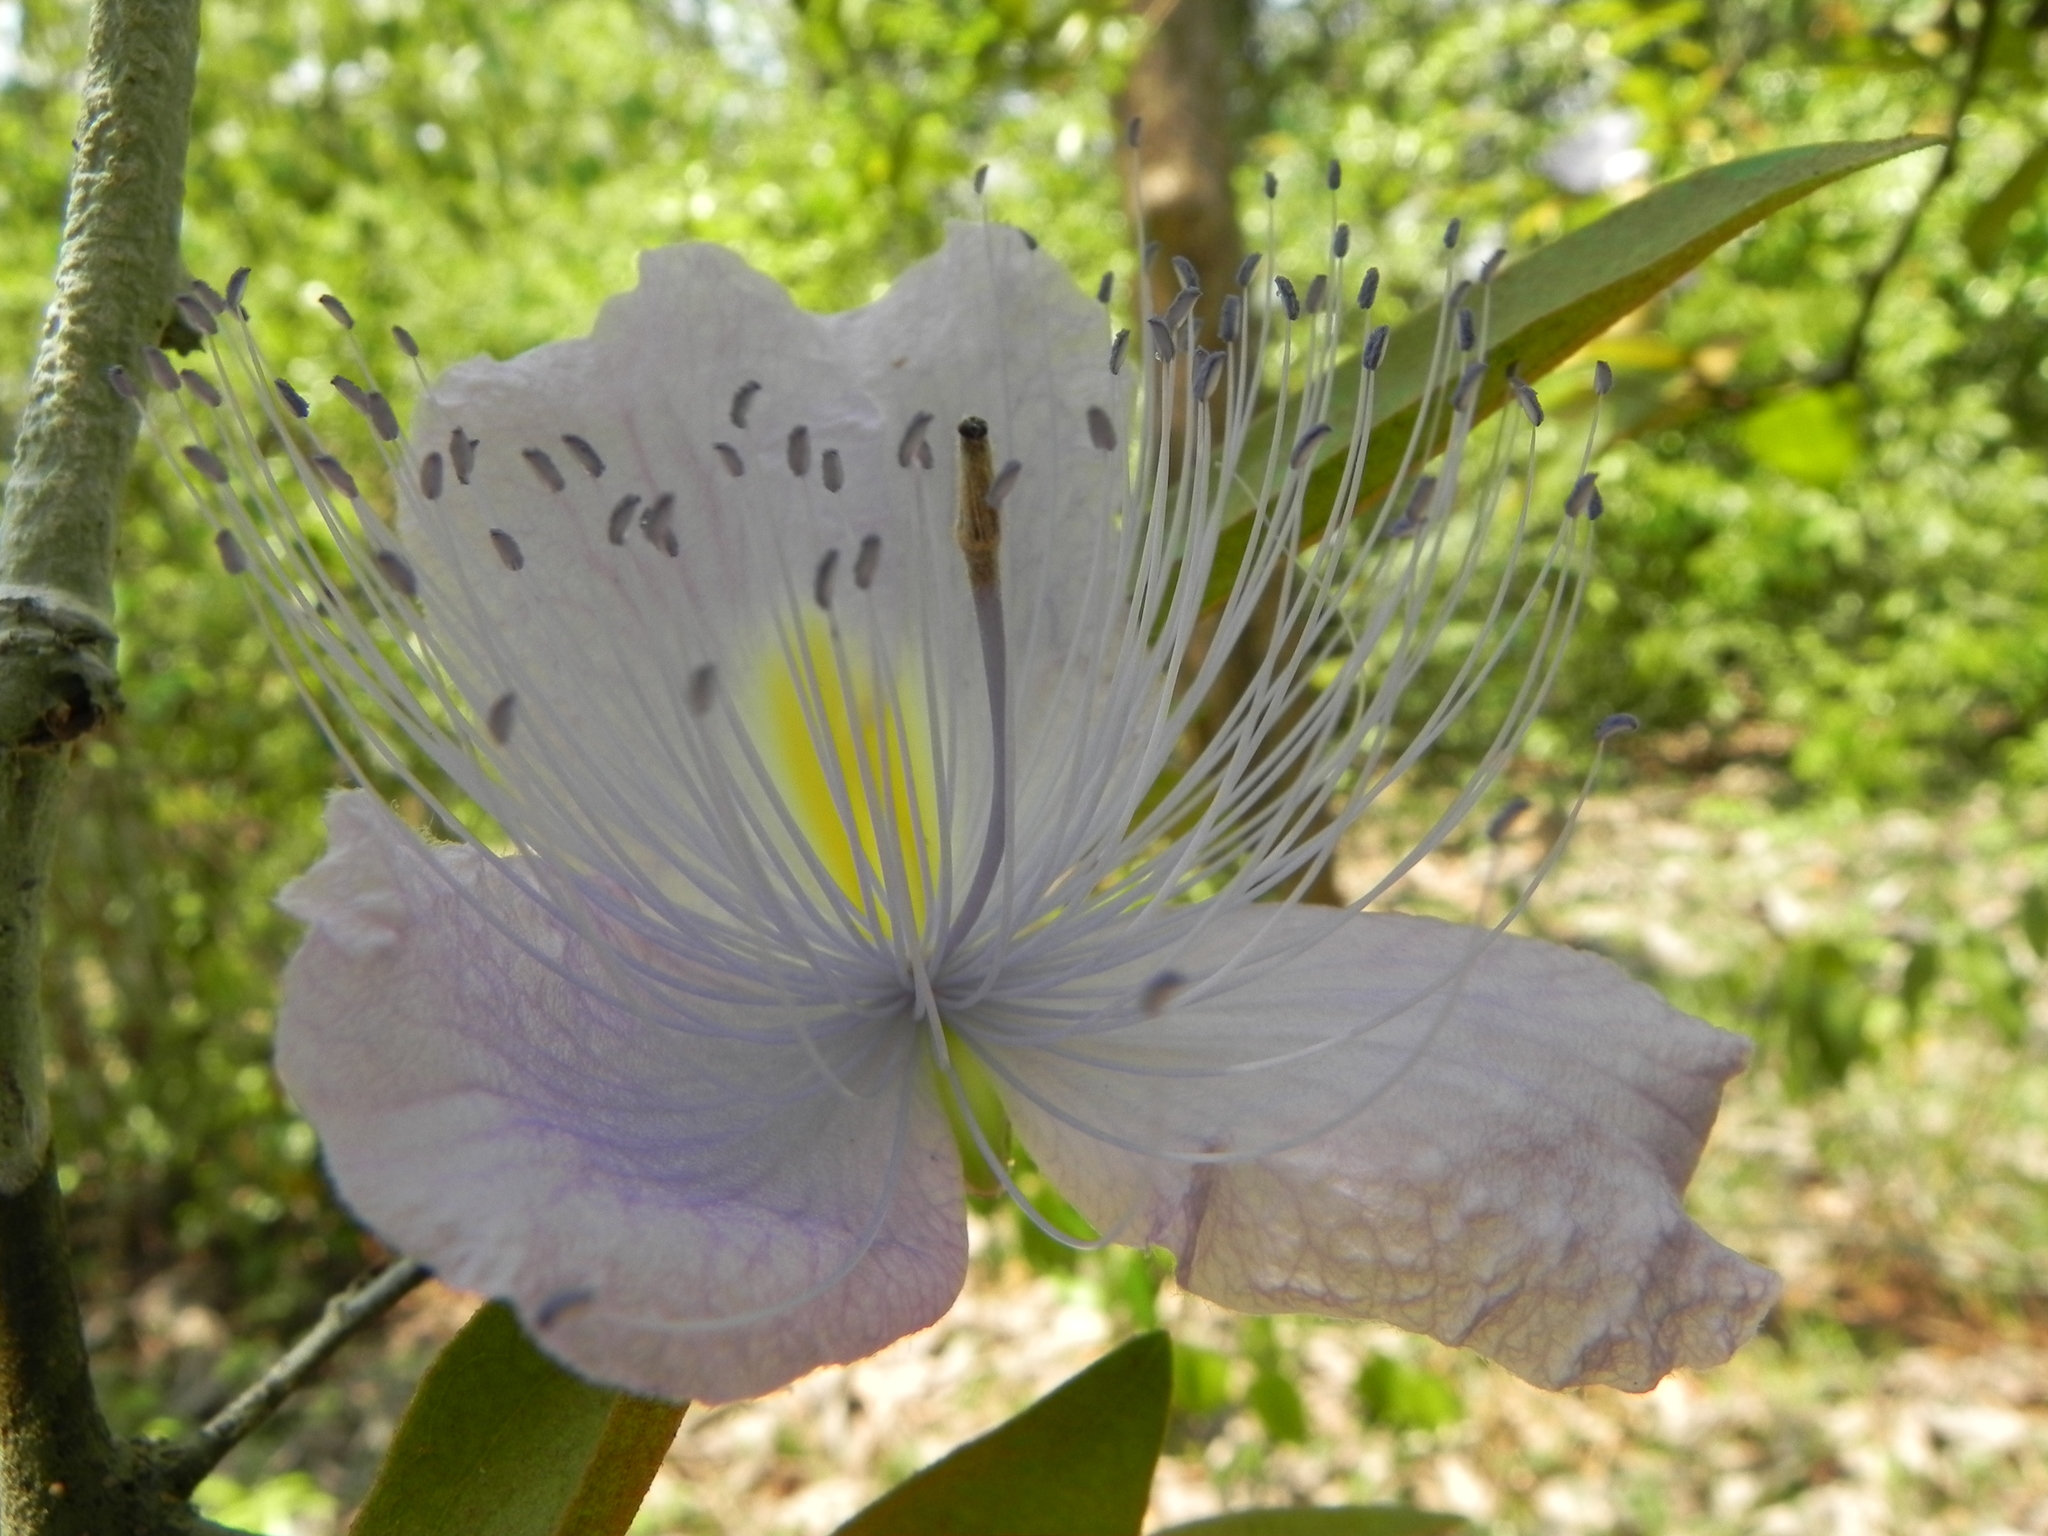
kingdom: Plantae
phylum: Tracheophyta
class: Magnoliopsida
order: Brassicales
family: Capparaceae
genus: Capparis
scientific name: Capparis spinosa
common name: Caper
